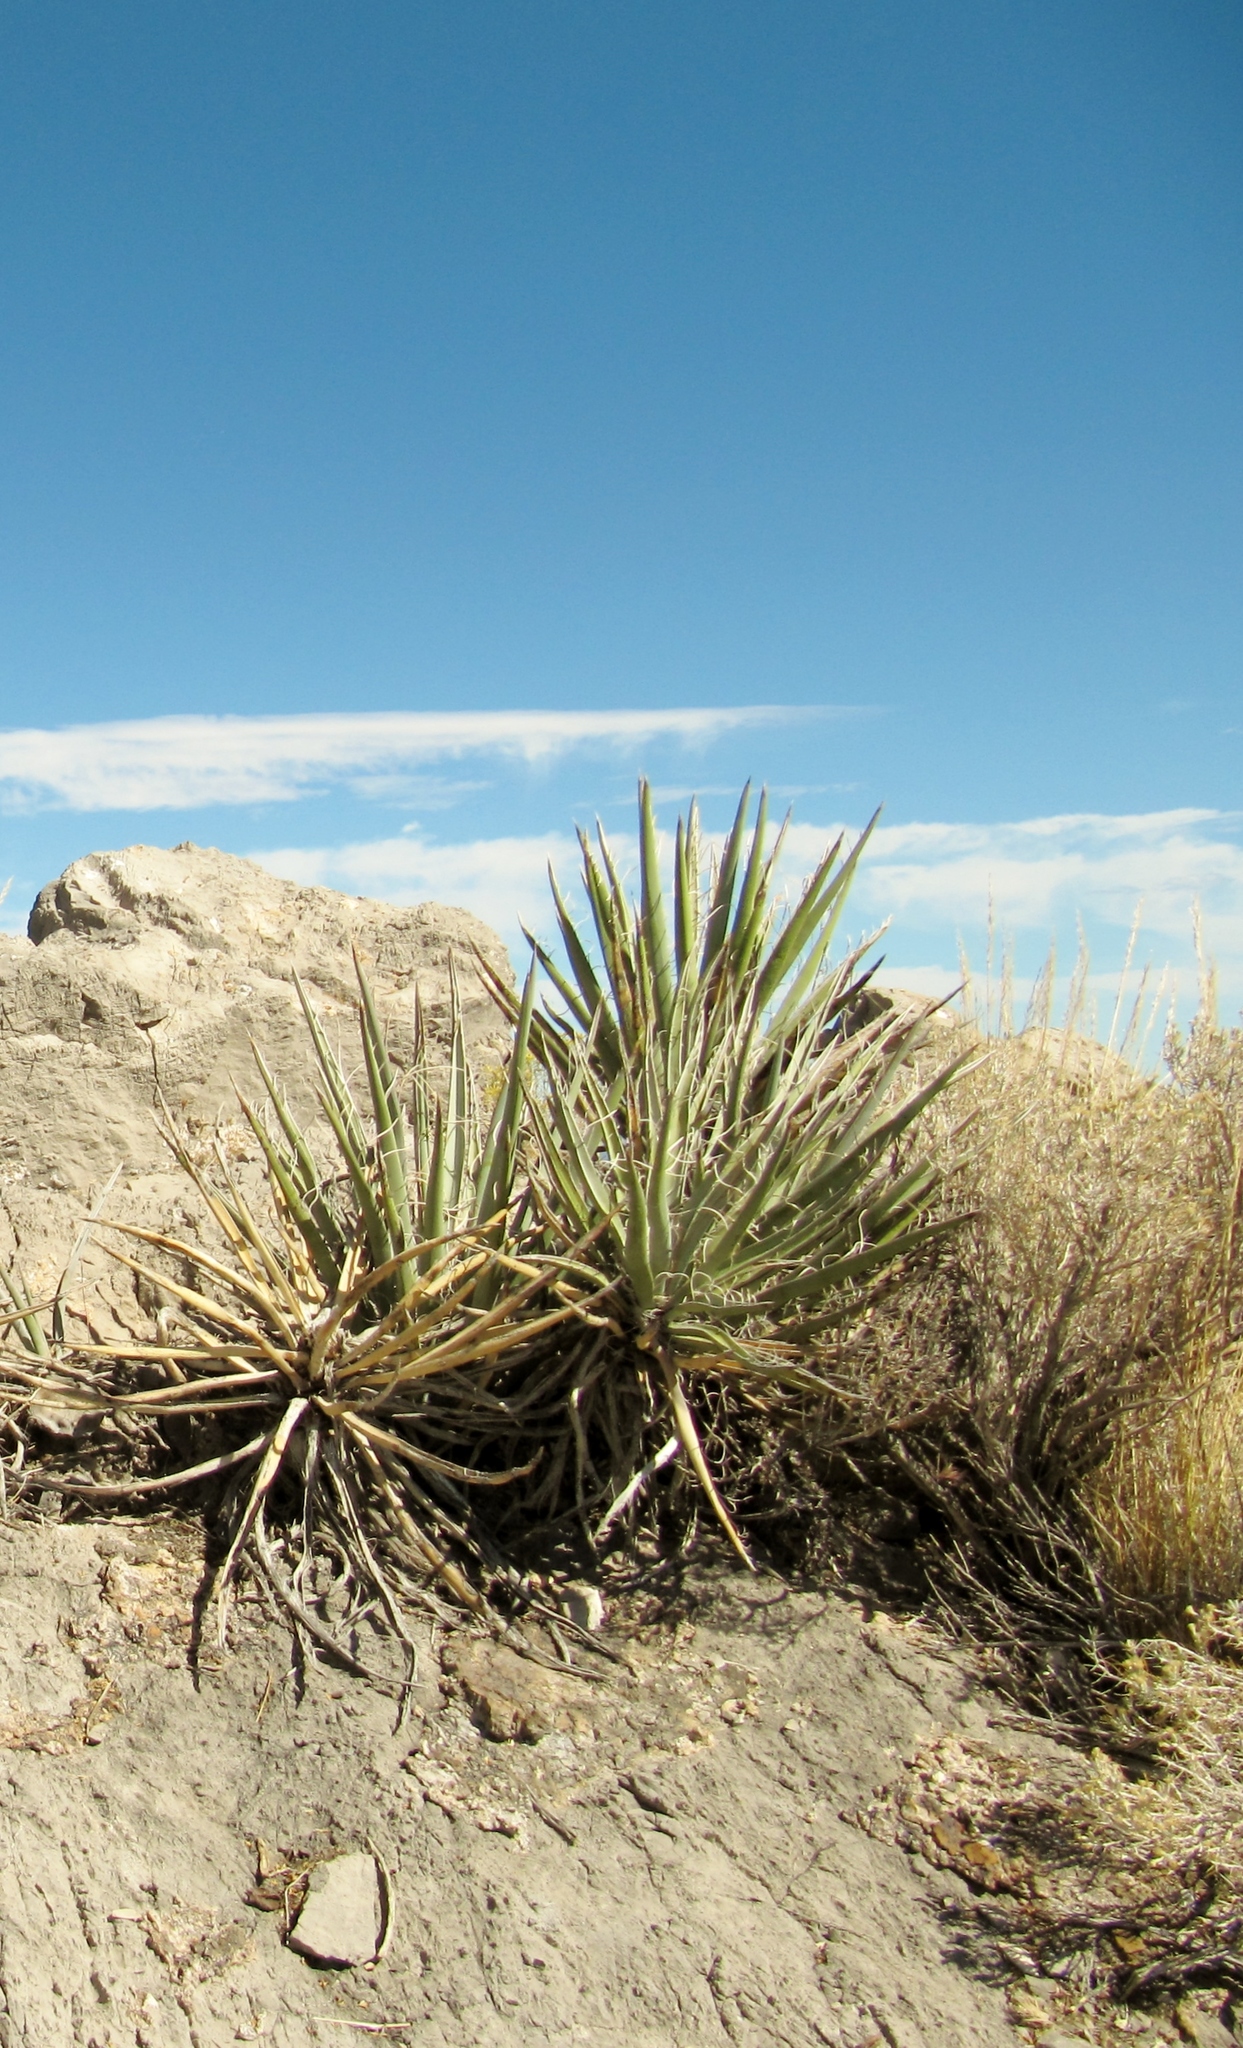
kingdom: Plantae
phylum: Tracheophyta
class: Liliopsida
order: Asparagales
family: Asparagaceae
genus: Yucca
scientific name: Yucca schidigera
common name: Mojave yucca
